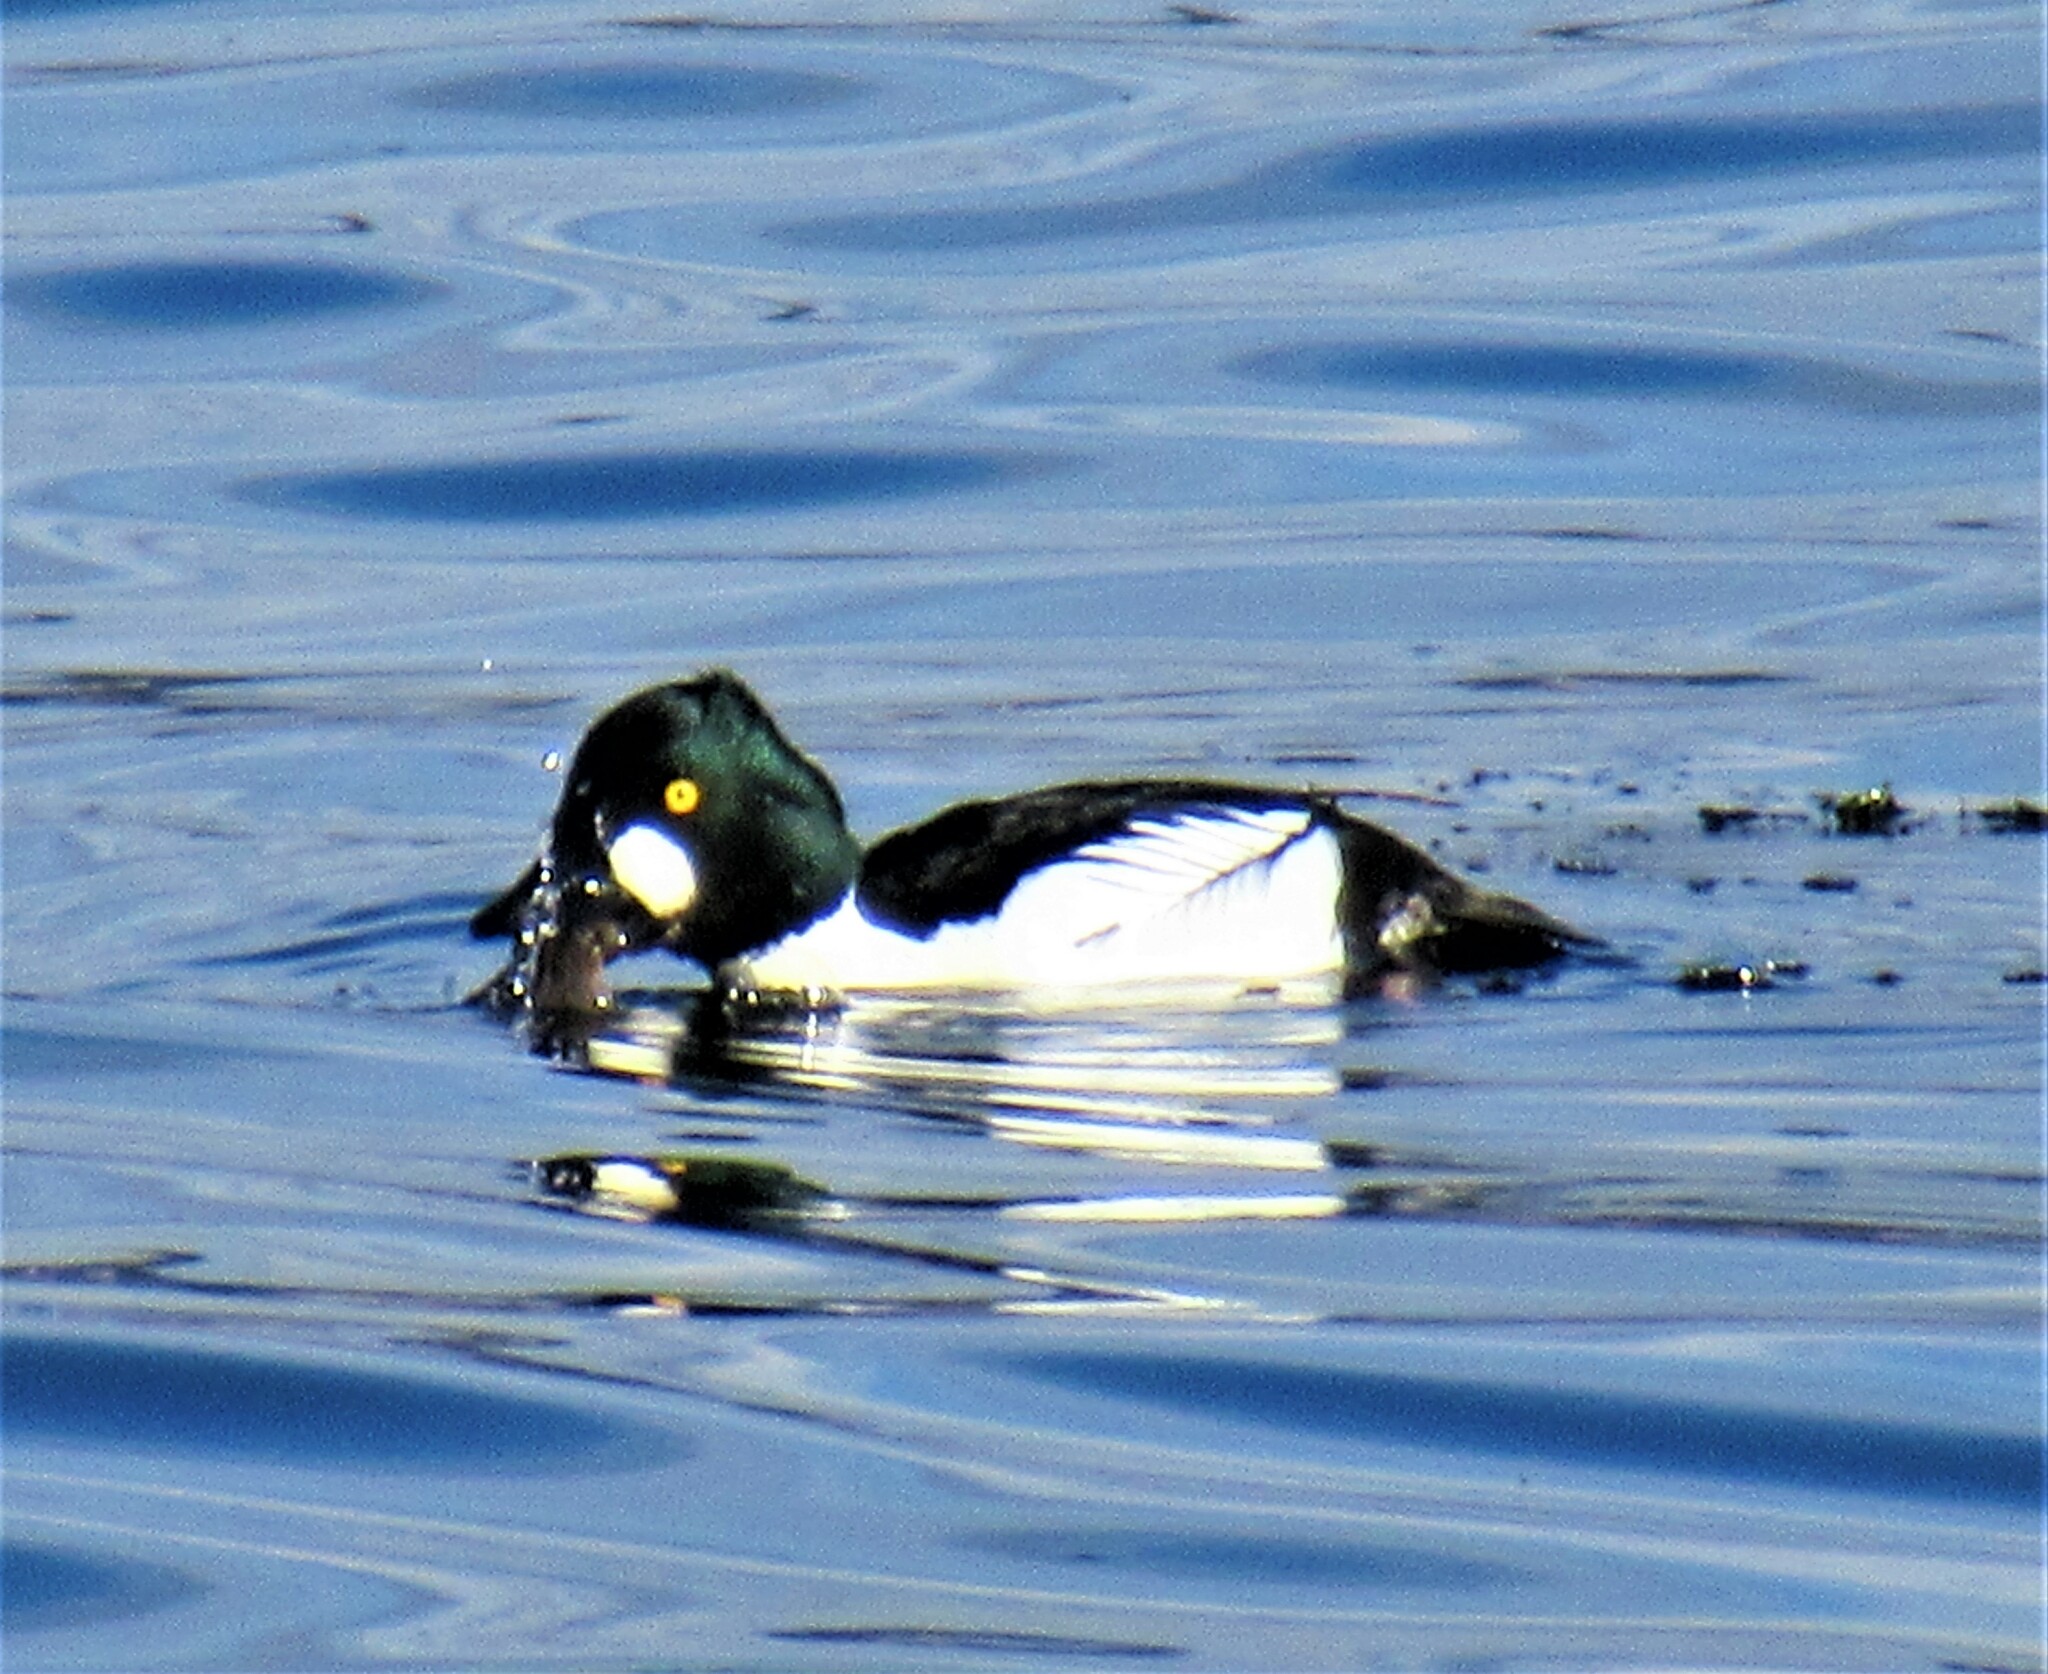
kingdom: Animalia
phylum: Chordata
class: Aves
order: Anseriformes
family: Anatidae
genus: Bucephala
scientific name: Bucephala clangula
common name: Common goldeneye
